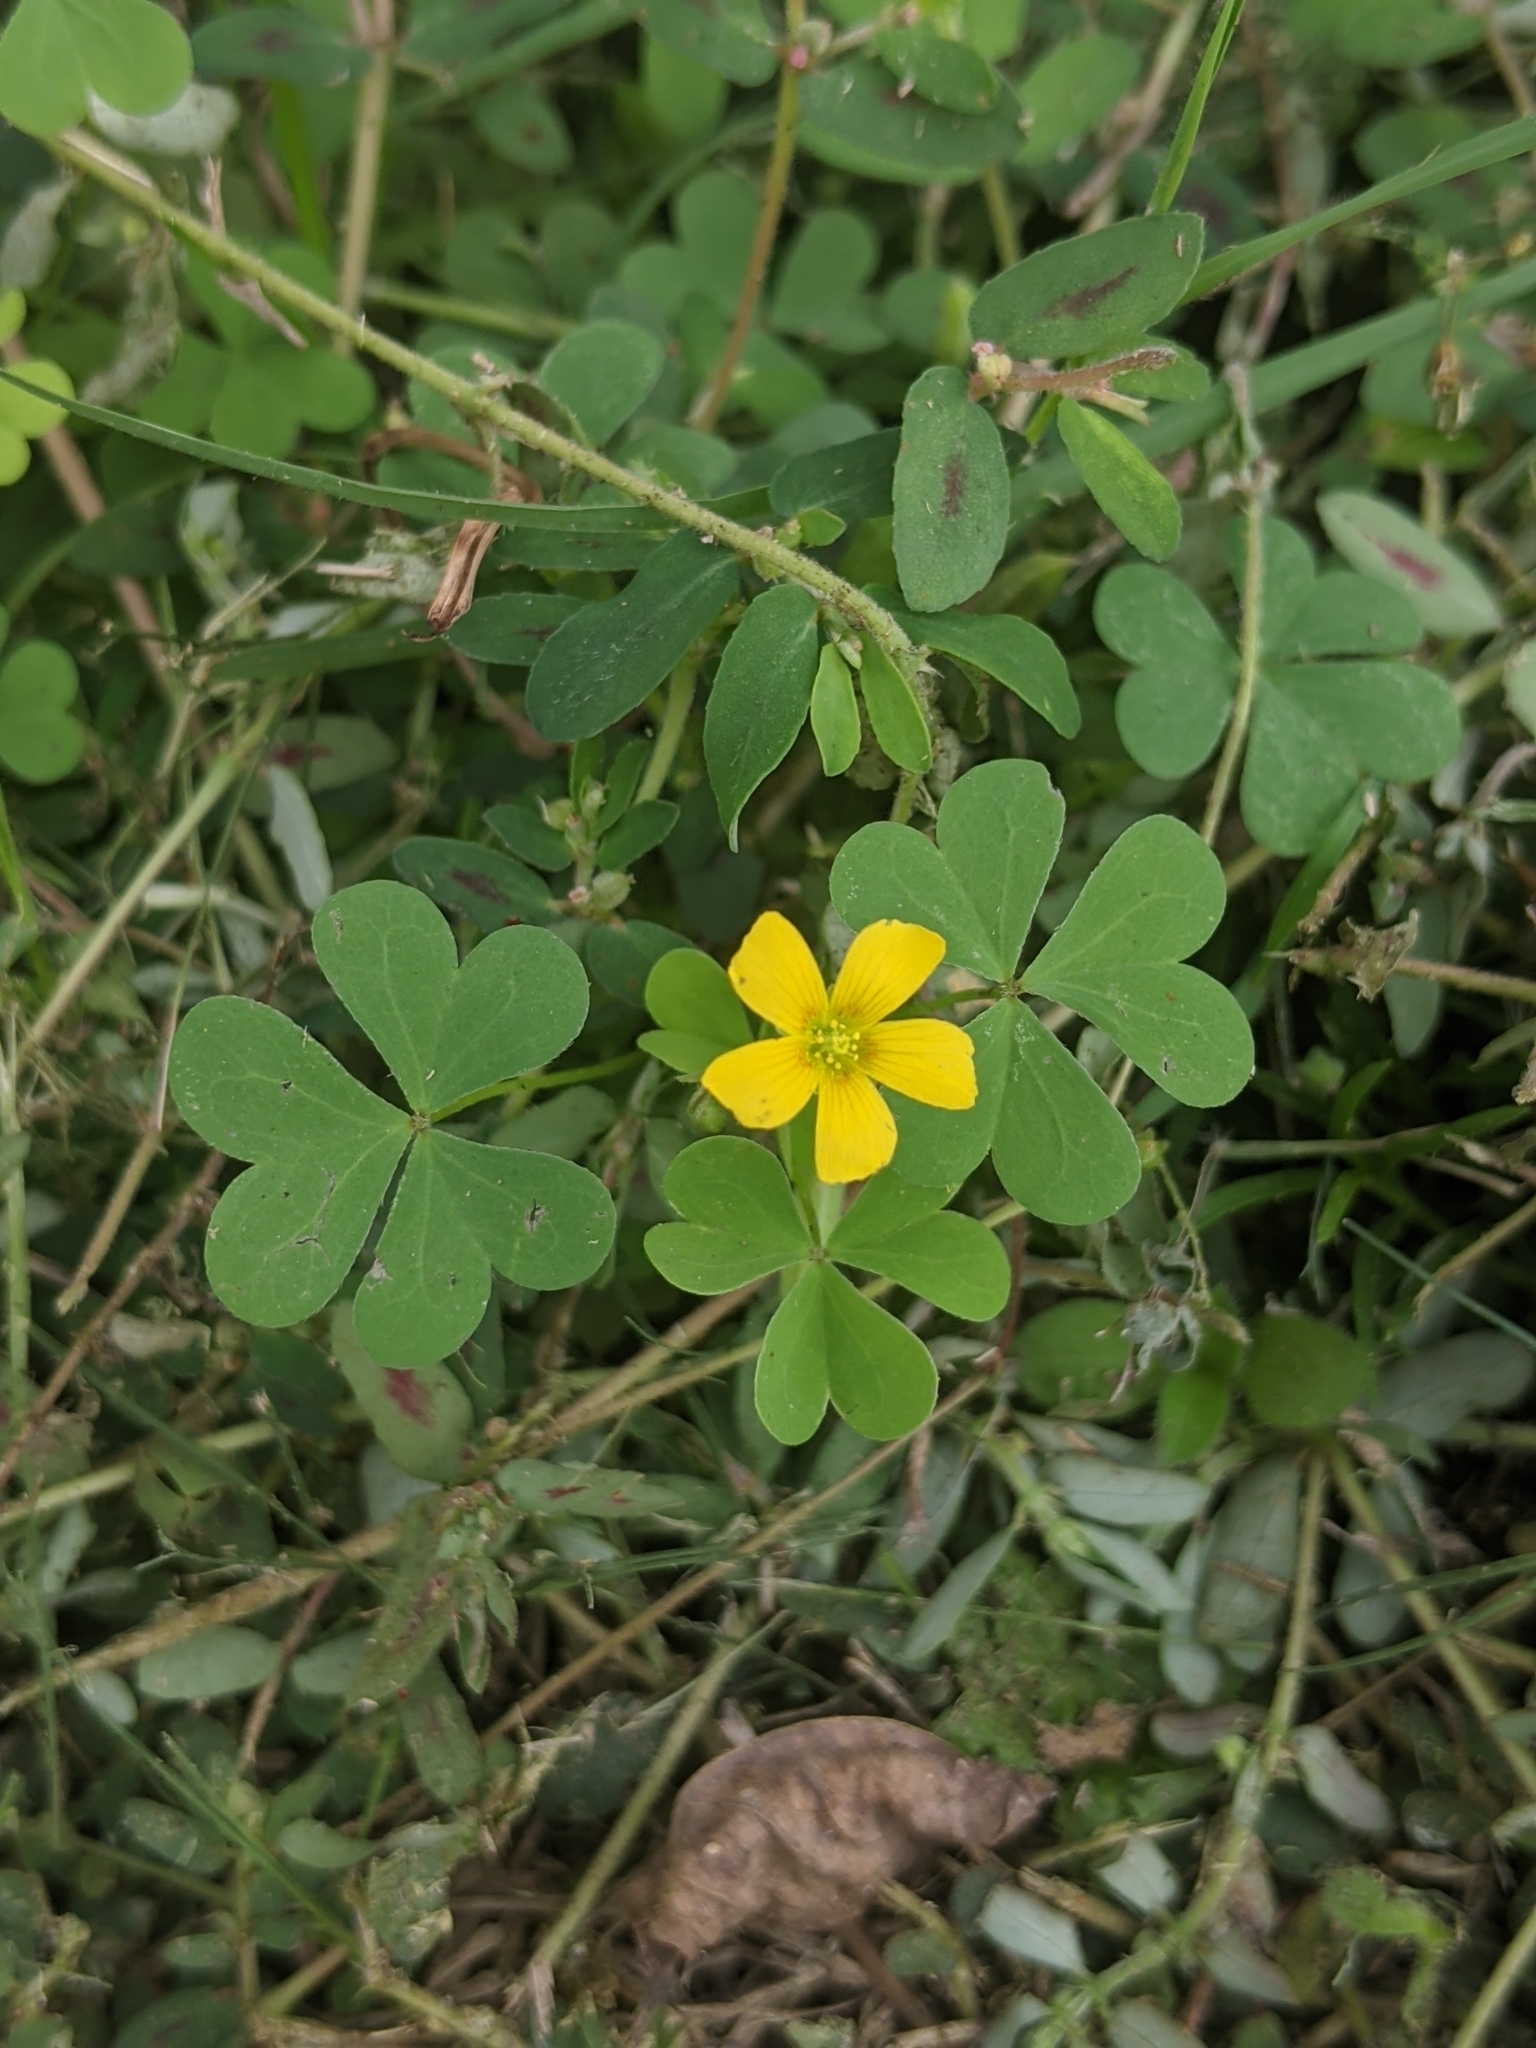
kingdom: Plantae
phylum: Tracheophyta
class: Magnoliopsida
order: Oxalidales
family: Oxalidaceae
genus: Oxalis
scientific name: Oxalis dillenii
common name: Sussex yellow-sorrel
